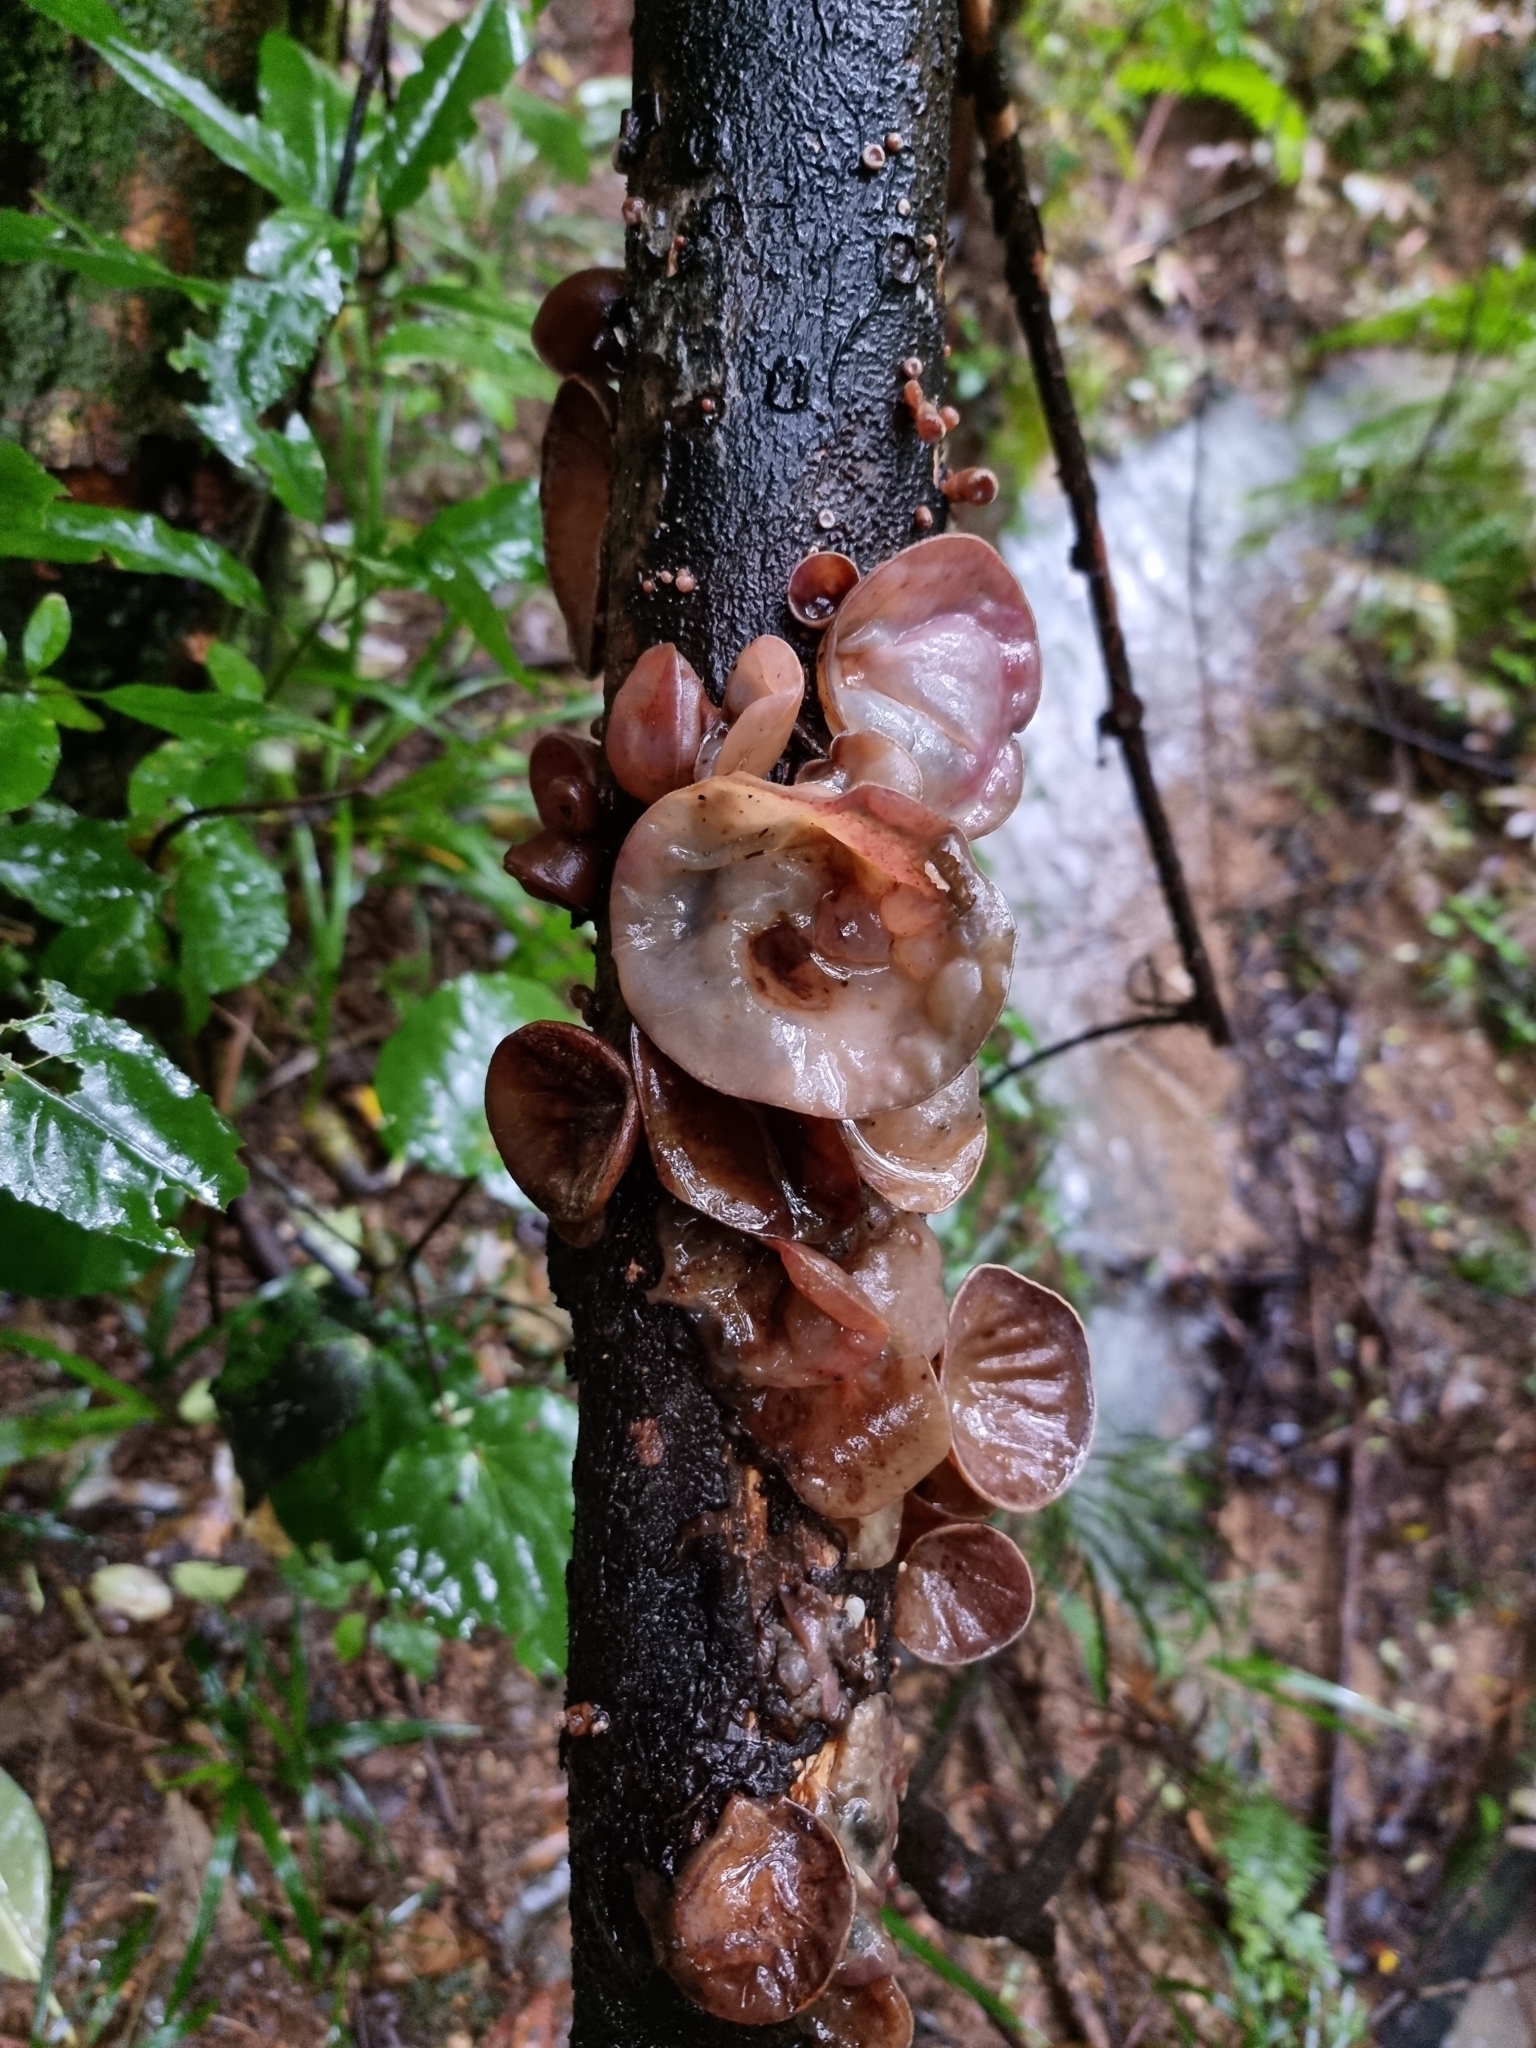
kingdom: Fungi
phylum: Basidiomycota
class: Agaricomycetes
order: Auriculariales
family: Auriculariaceae
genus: Auricularia
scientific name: Auricularia cornea
